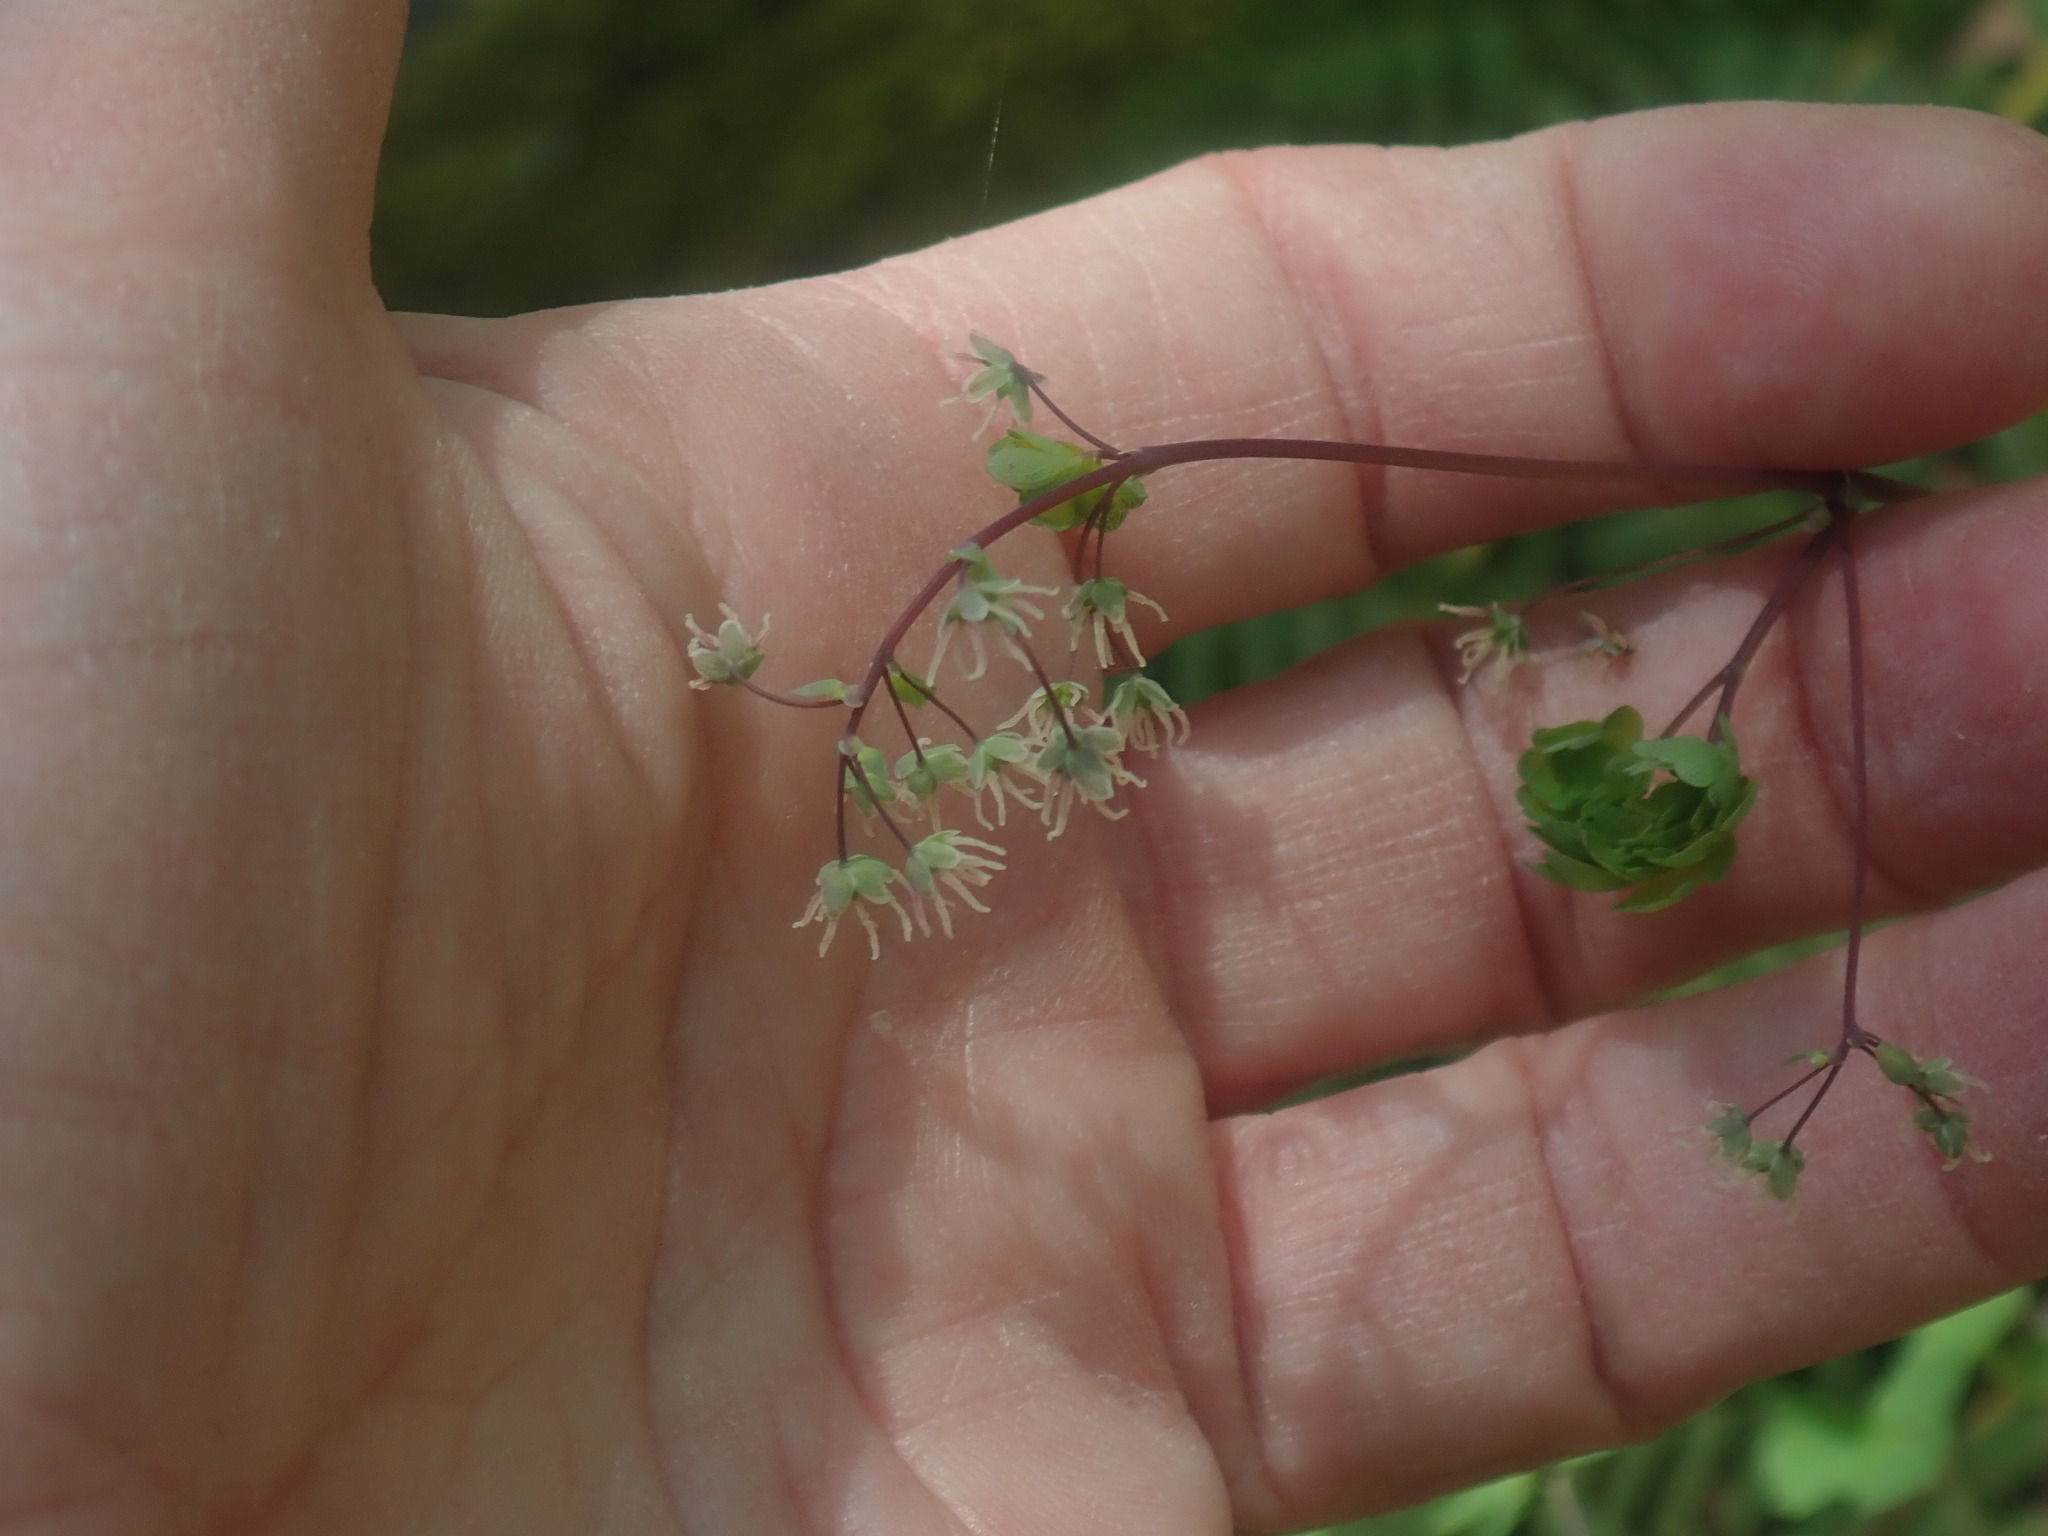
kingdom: Plantae
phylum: Tracheophyta
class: Magnoliopsida
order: Ranunculales
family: Ranunculaceae
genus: Thalictrum
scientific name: Thalictrum dioicum
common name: Early meadow-rue
